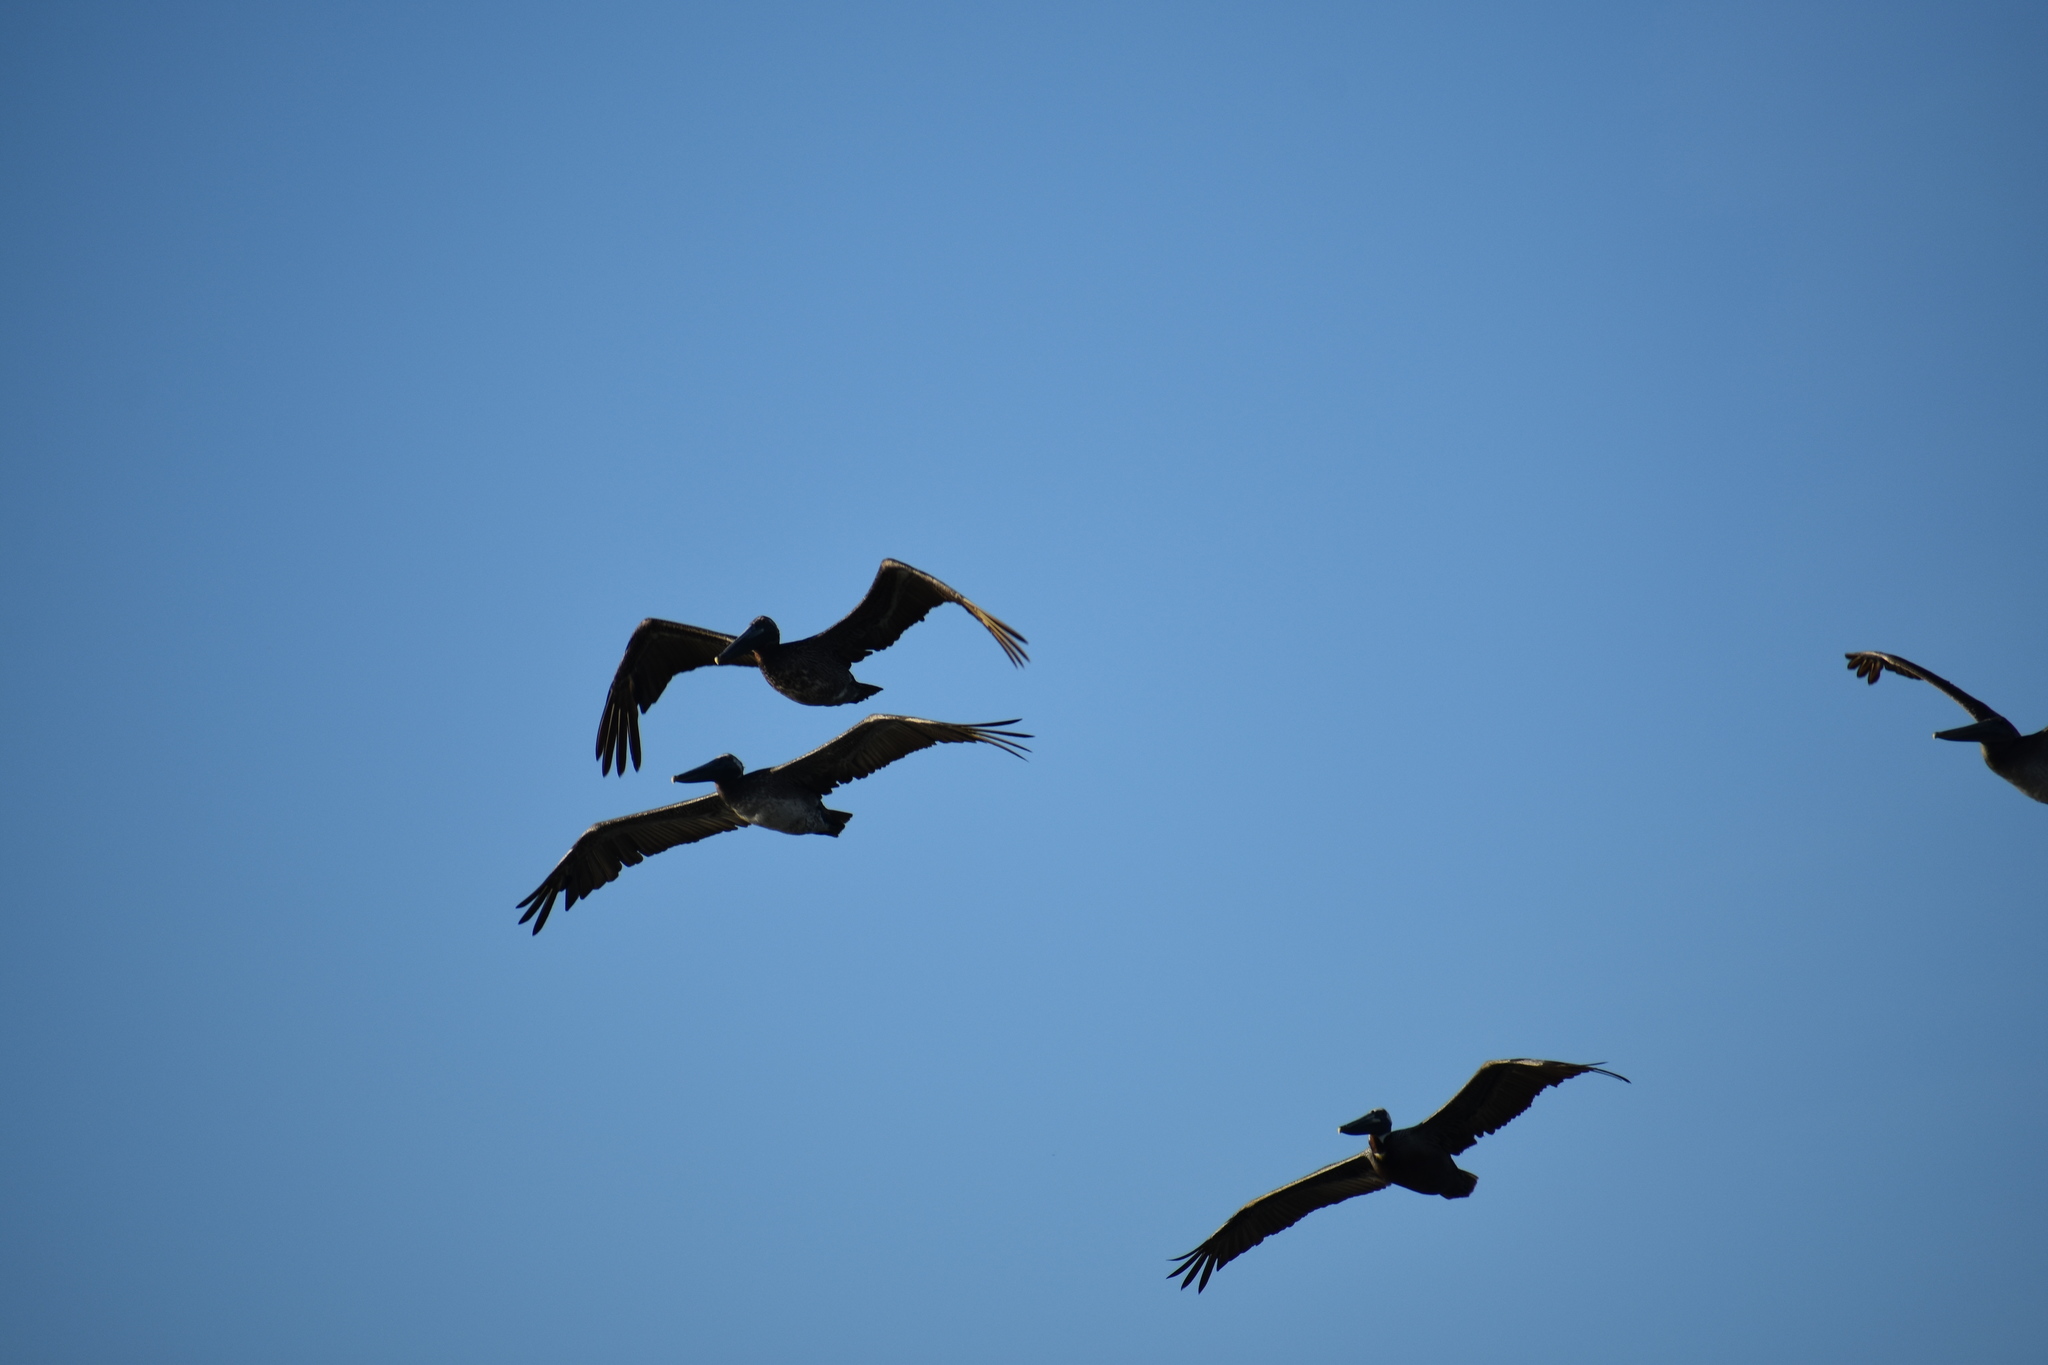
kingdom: Animalia
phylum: Chordata
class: Aves
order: Pelecaniformes
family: Pelecanidae
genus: Pelecanus
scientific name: Pelecanus occidentalis
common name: Brown pelican
